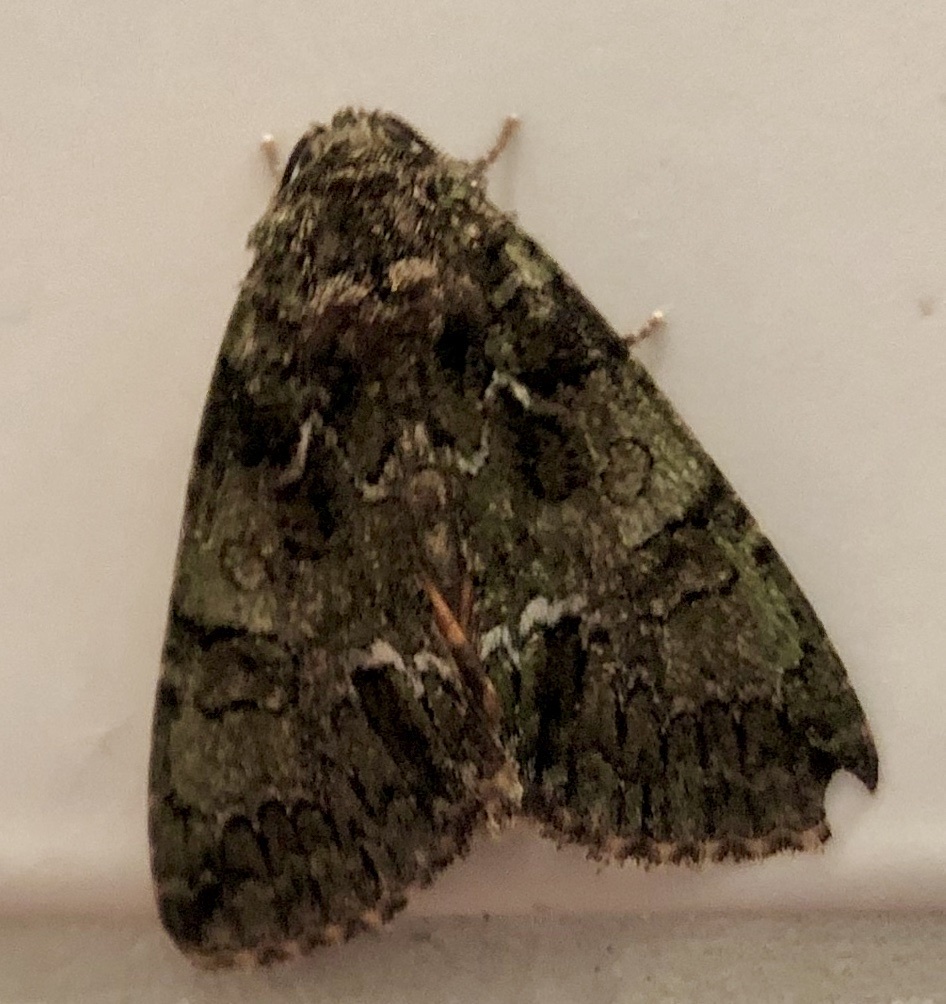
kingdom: Animalia
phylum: Arthropoda
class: Insecta
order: Lepidoptera
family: Noctuidae
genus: Polyphaenis
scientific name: Polyphaenis sericata
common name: Guernsey underwing
